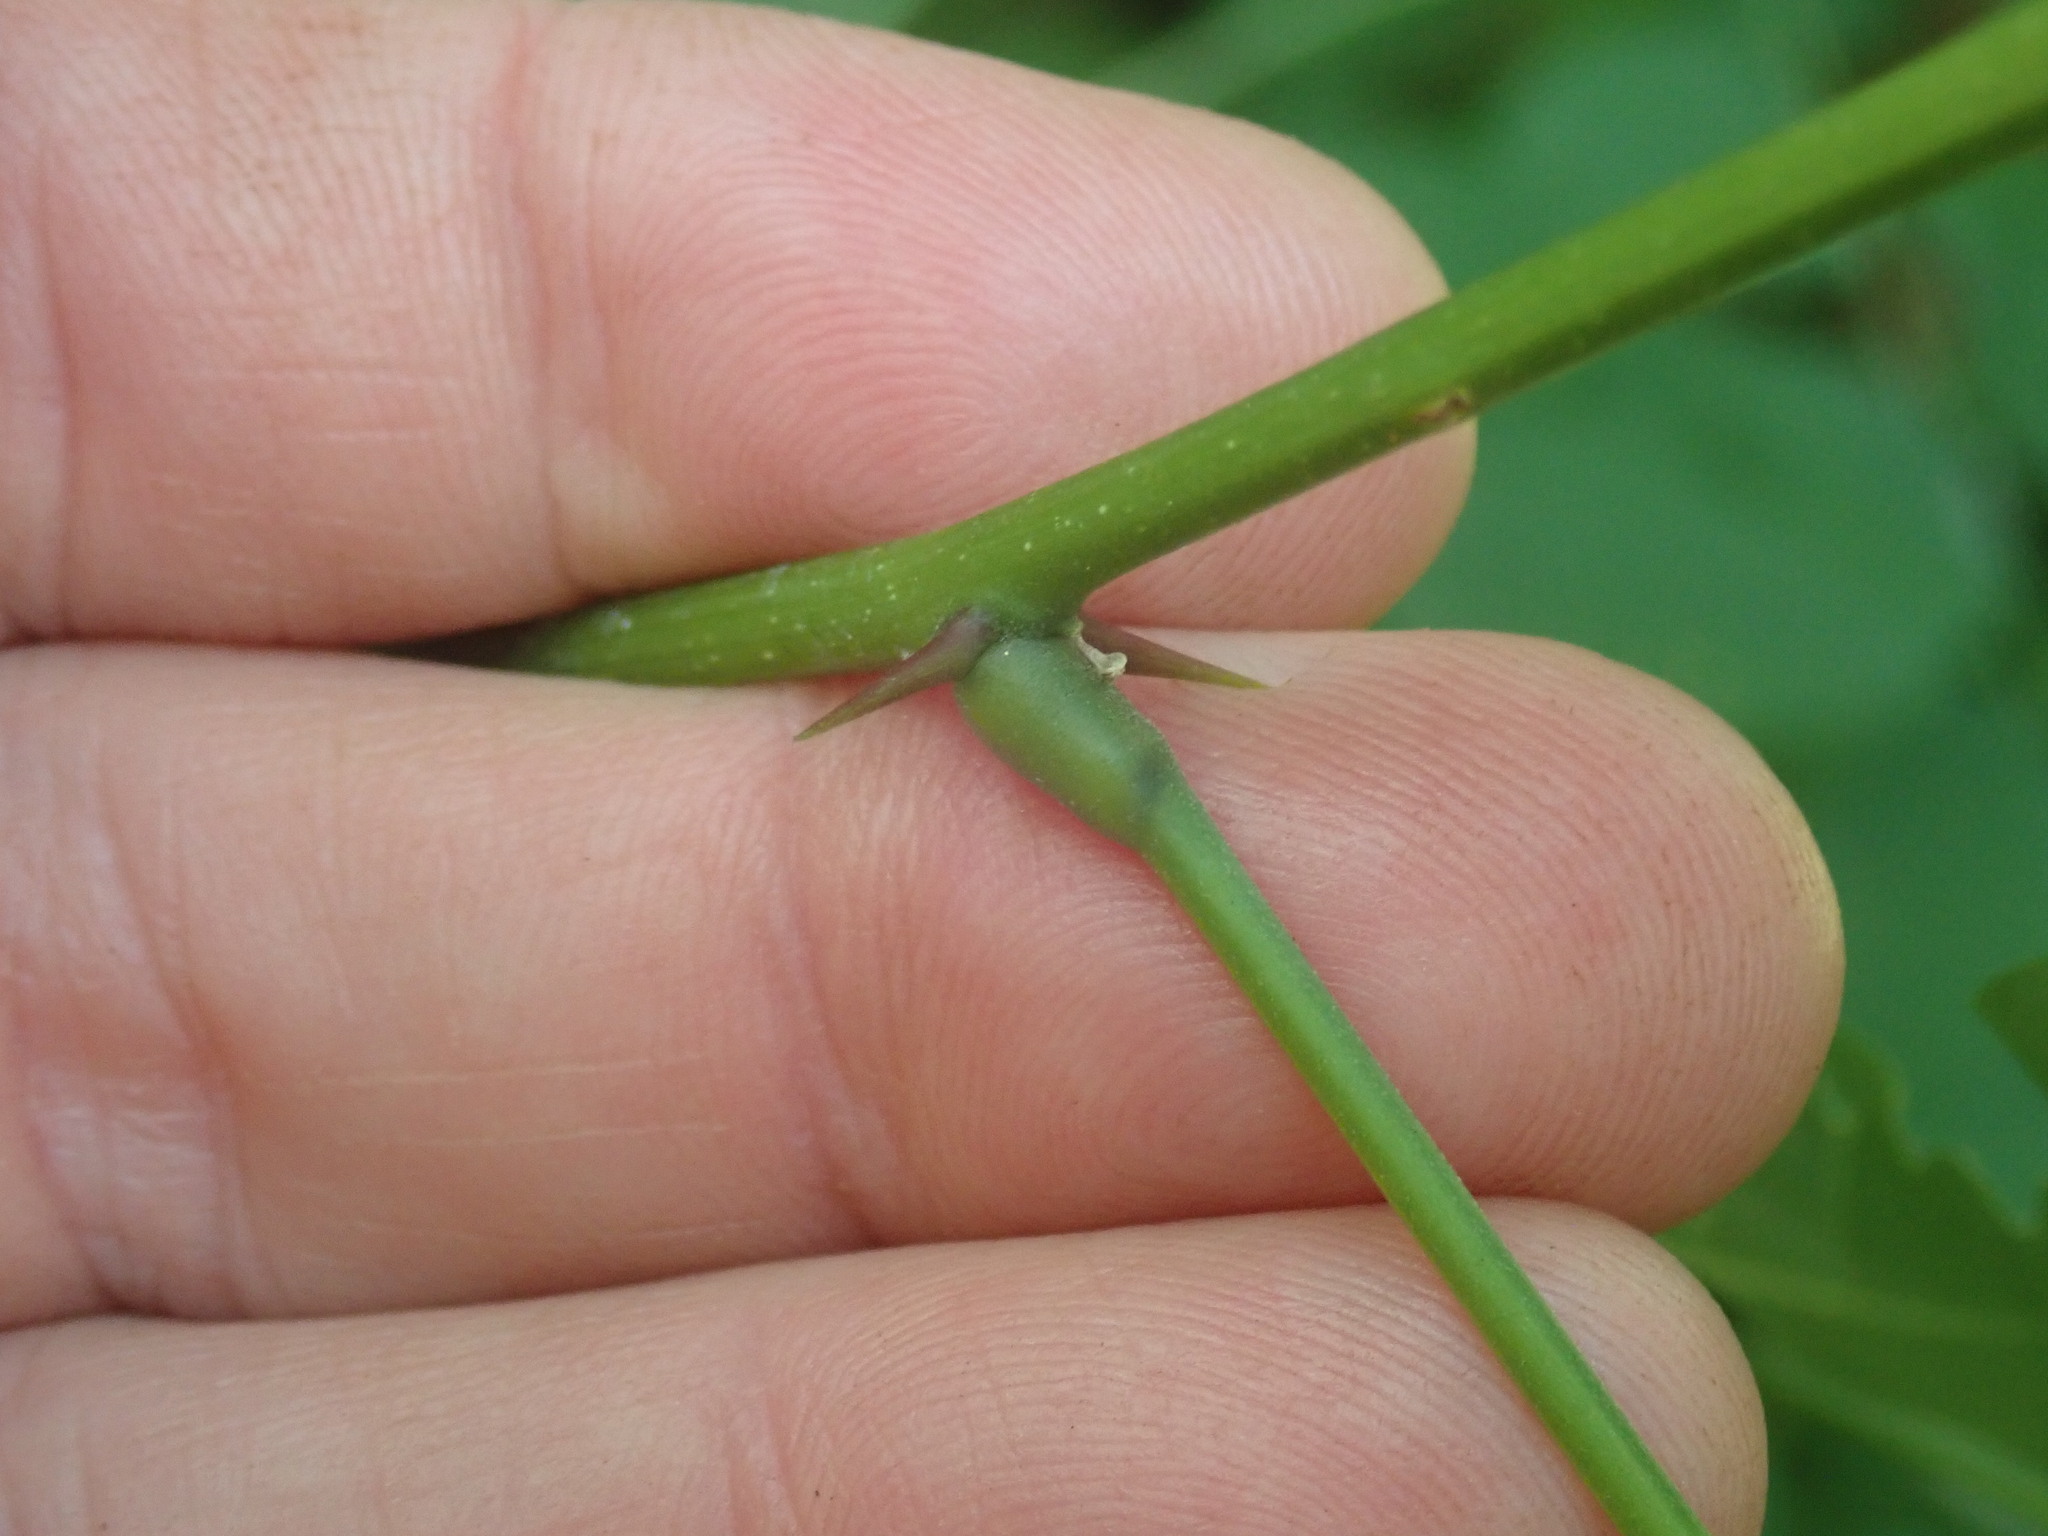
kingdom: Plantae
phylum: Tracheophyta
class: Magnoliopsida
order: Fabales
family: Fabaceae
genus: Robinia
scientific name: Robinia pseudoacacia
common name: Black locust
